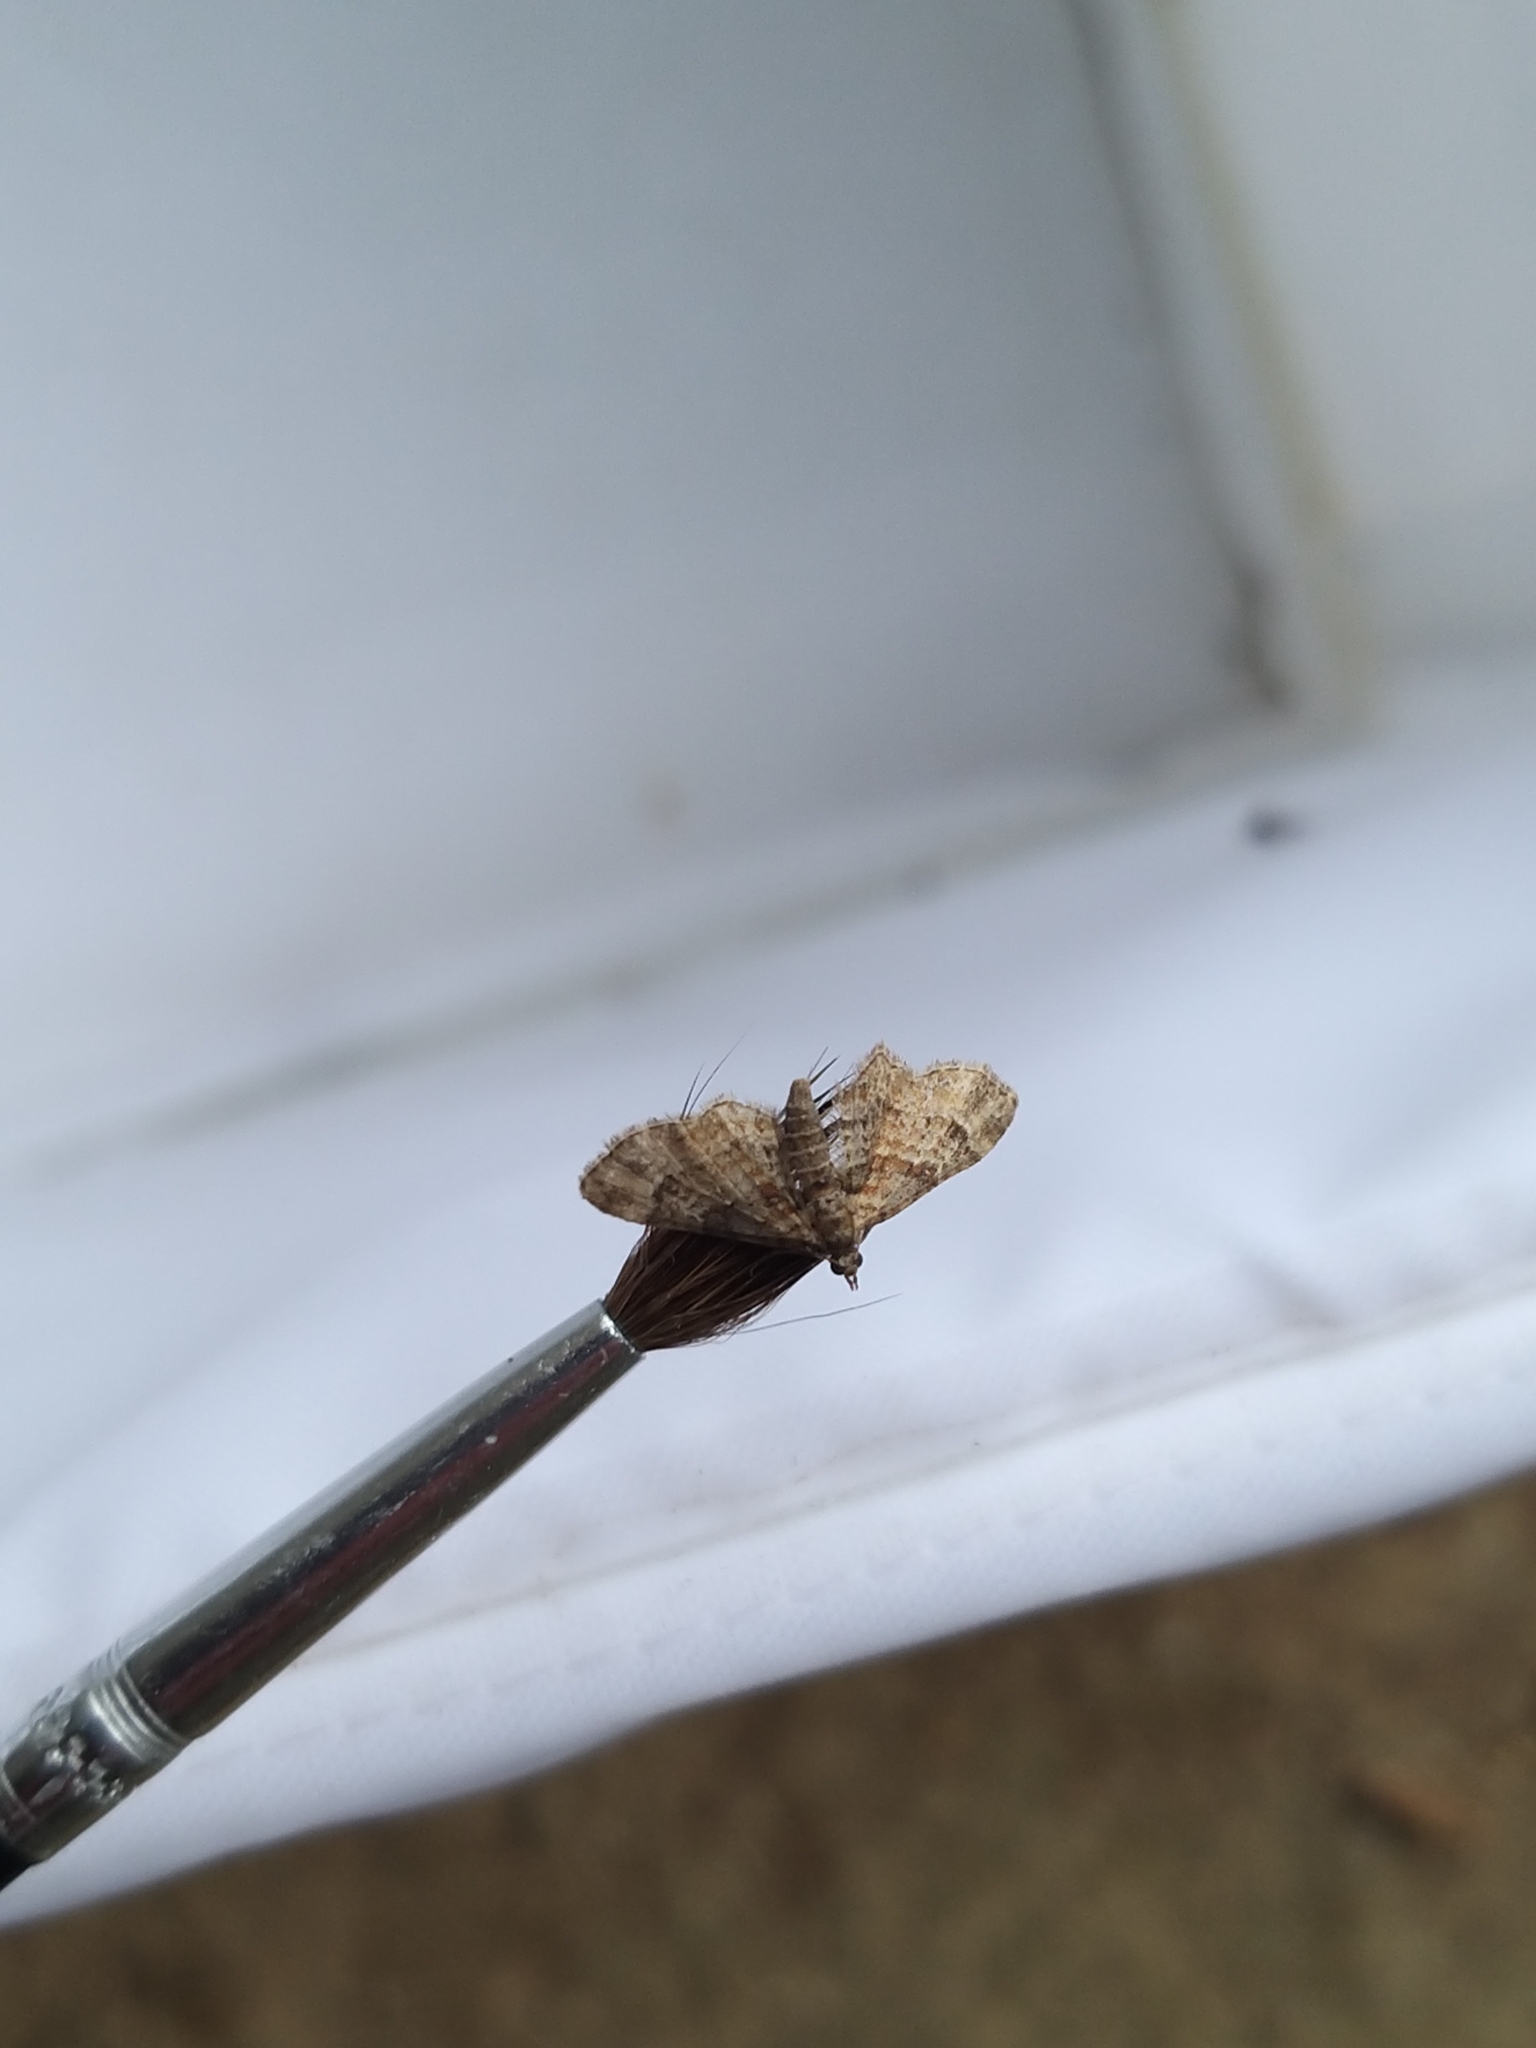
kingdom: Animalia
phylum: Arthropoda
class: Insecta
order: Lepidoptera
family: Geometridae
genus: Gymnoscelis
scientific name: Gymnoscelis rufifasciata
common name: Double-striped pug
